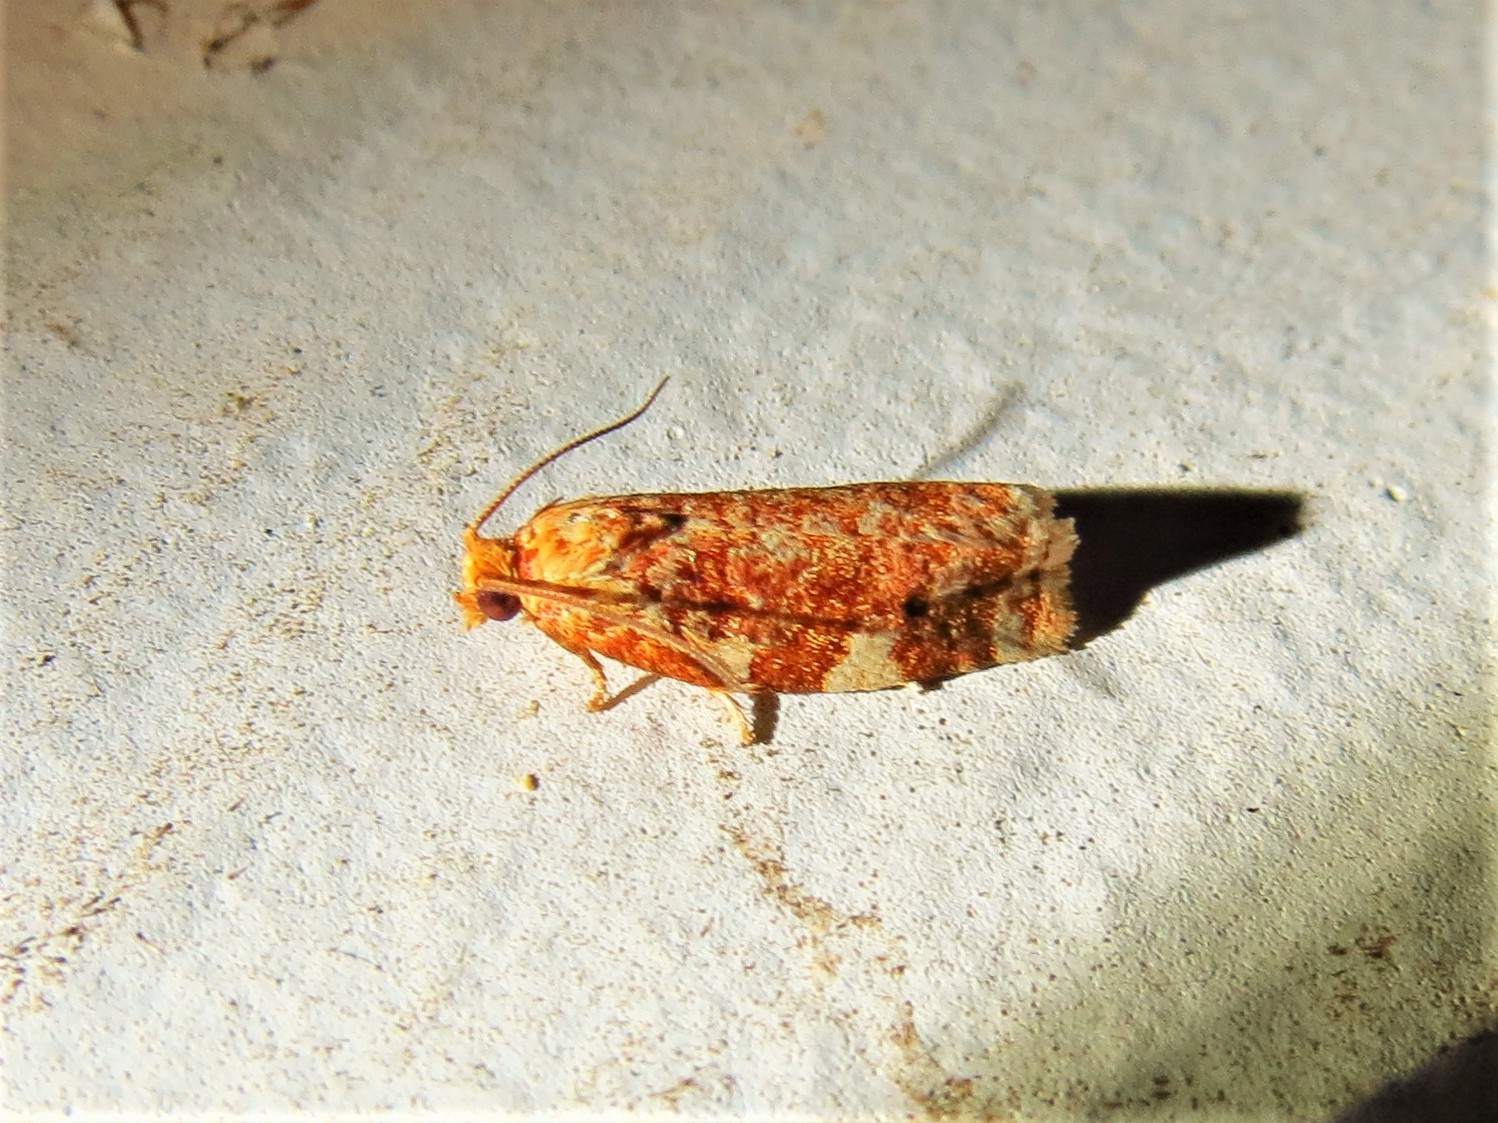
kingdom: Animalia
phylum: Arthropoda
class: Insecta
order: Lepidoptera
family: Tortricidae
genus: Archips
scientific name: Archips argyrospila
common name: Fruit-tree leafroller moth
